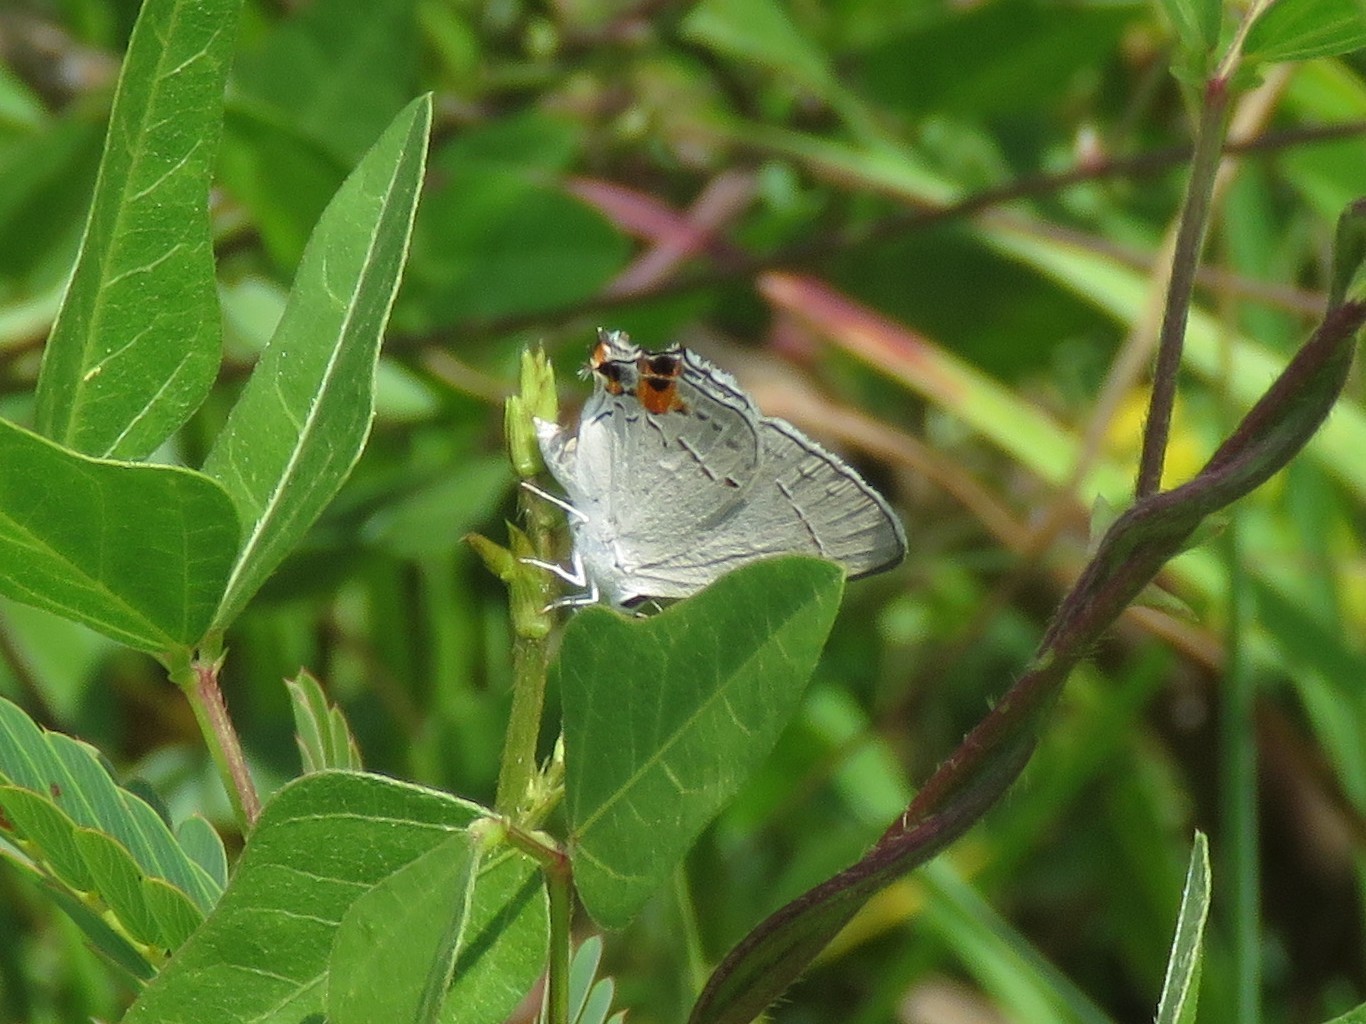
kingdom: Animalia
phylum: Arthropoda
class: Insecta
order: Lepidoptera
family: Lycaenidae
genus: Strymon
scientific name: Strymon melinus
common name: Gray hairstreak
